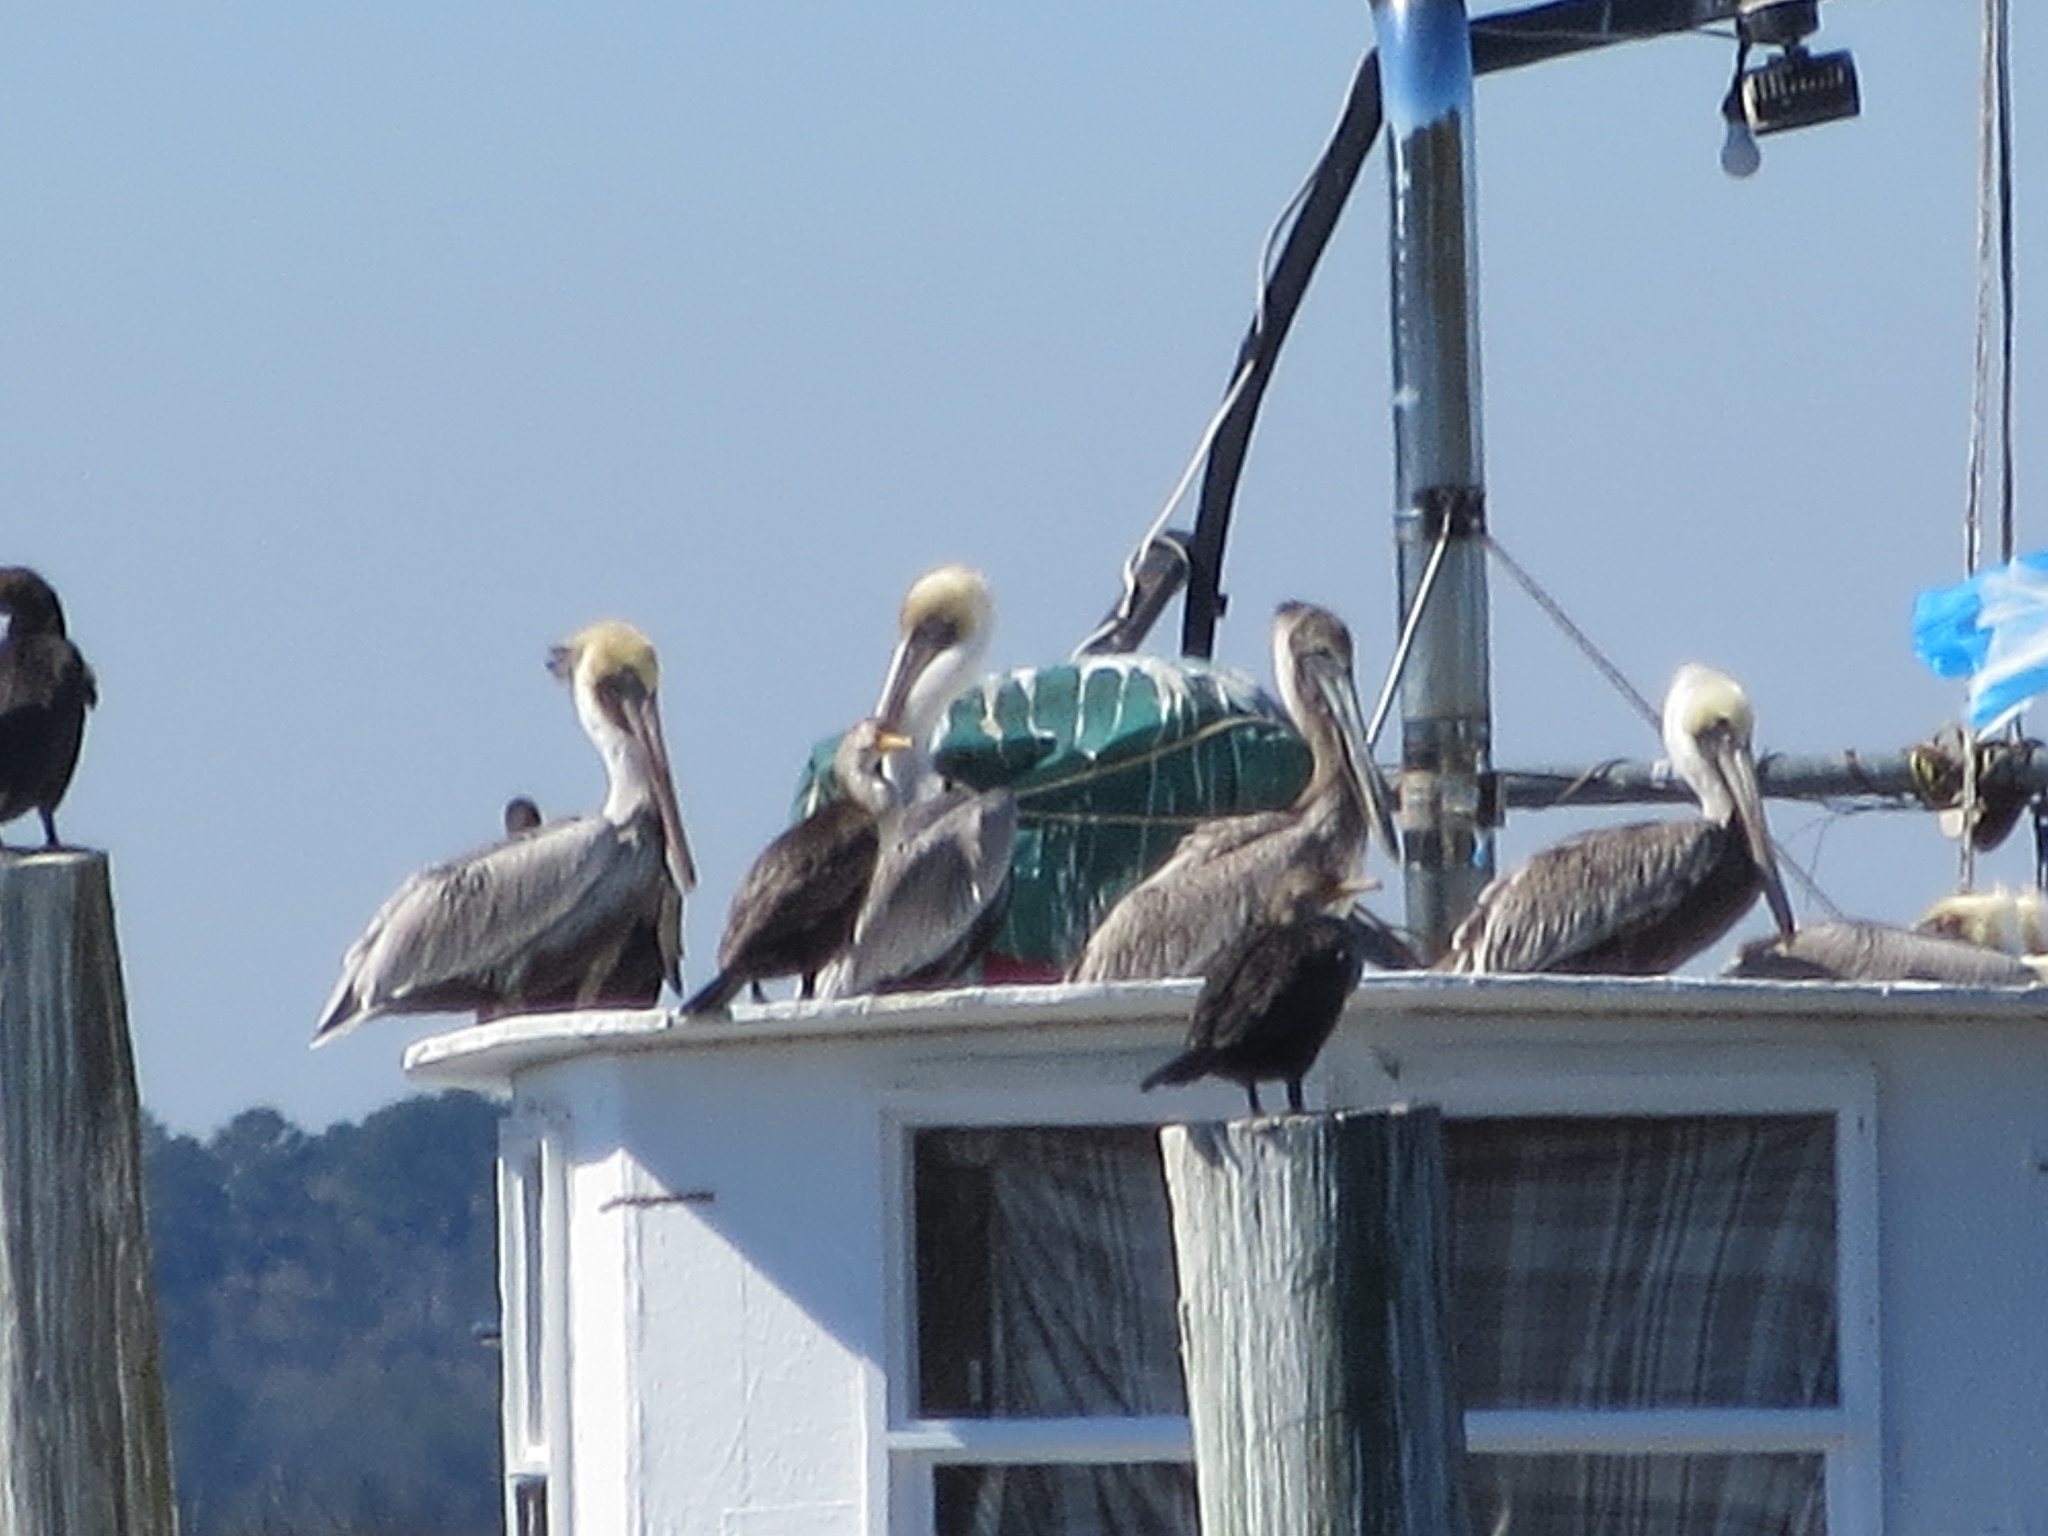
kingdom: Animalia
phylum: Chordata
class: Aves
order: Pelecaniformes
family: Pelecanidae
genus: Pelecanus
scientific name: Pelecanus occidentalis
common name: Brown pelican
